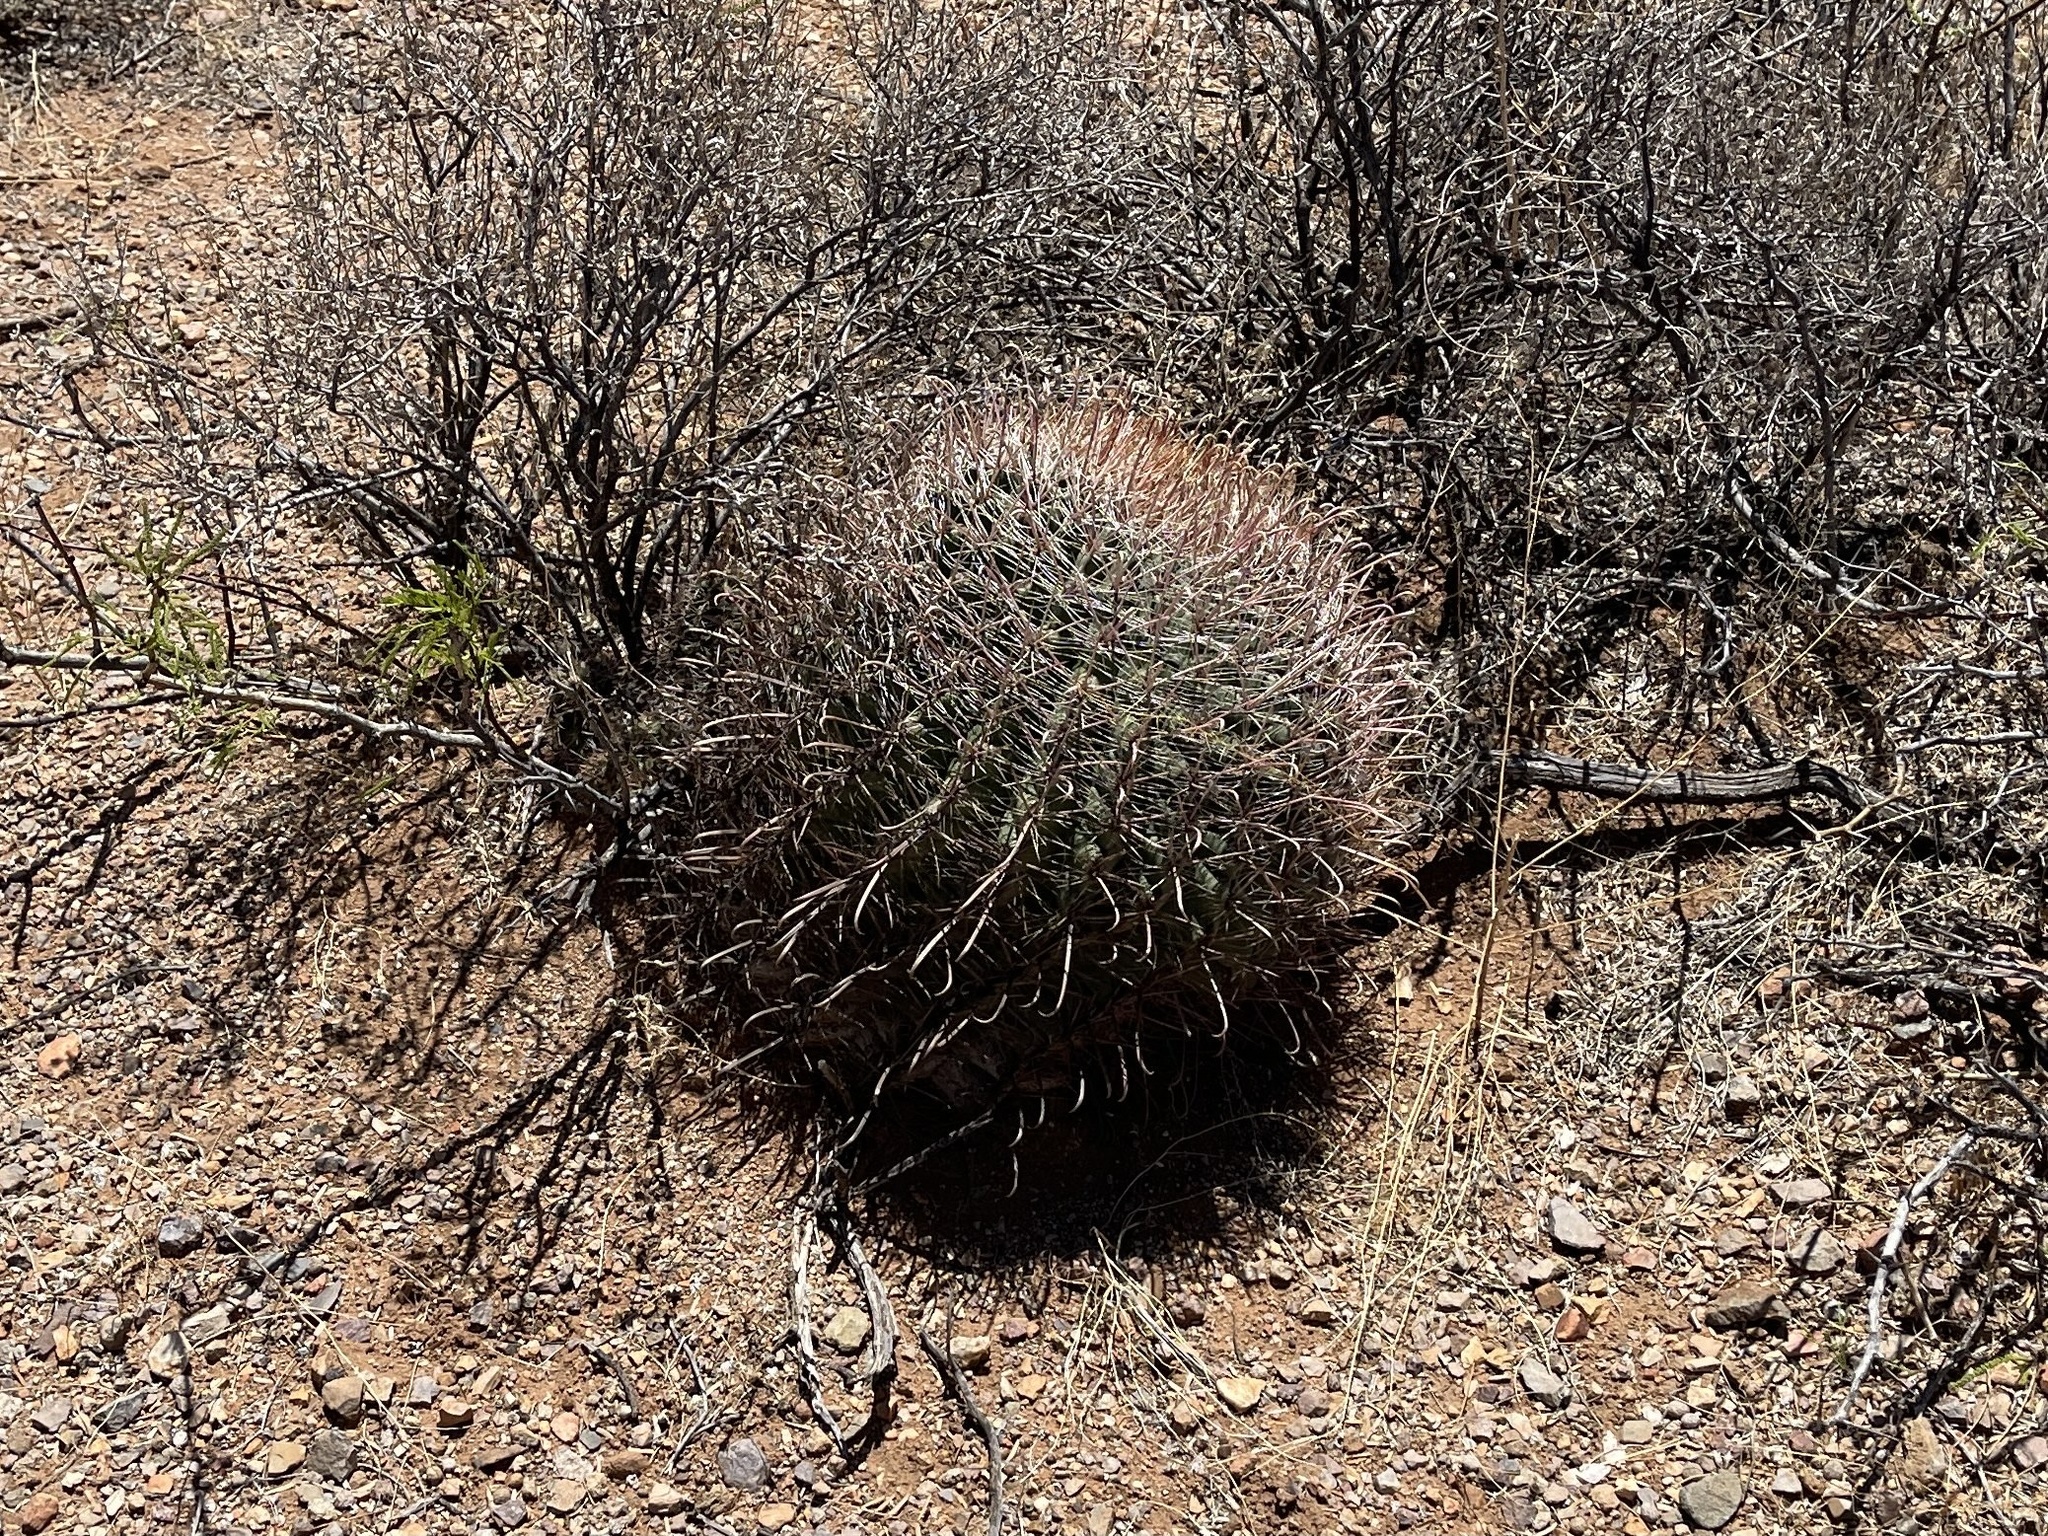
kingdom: Plantae
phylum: Tracheophyta
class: Magnoliopsida
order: Caryophyllales
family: Cactaceae
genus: Ferocactus
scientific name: Ferocactus wislizeni
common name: Candy barrel cactus
